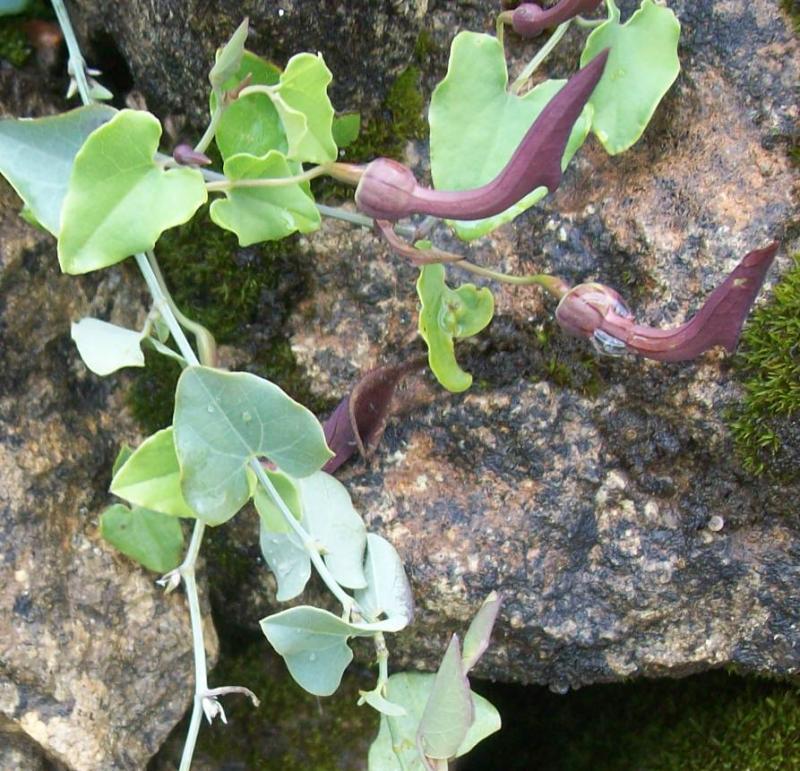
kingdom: Plantae
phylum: Tracheophyta
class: Magnoliopsida
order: Piperales
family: Aristolochiaceae
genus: Aristolochia
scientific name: Aristolochia baetica
